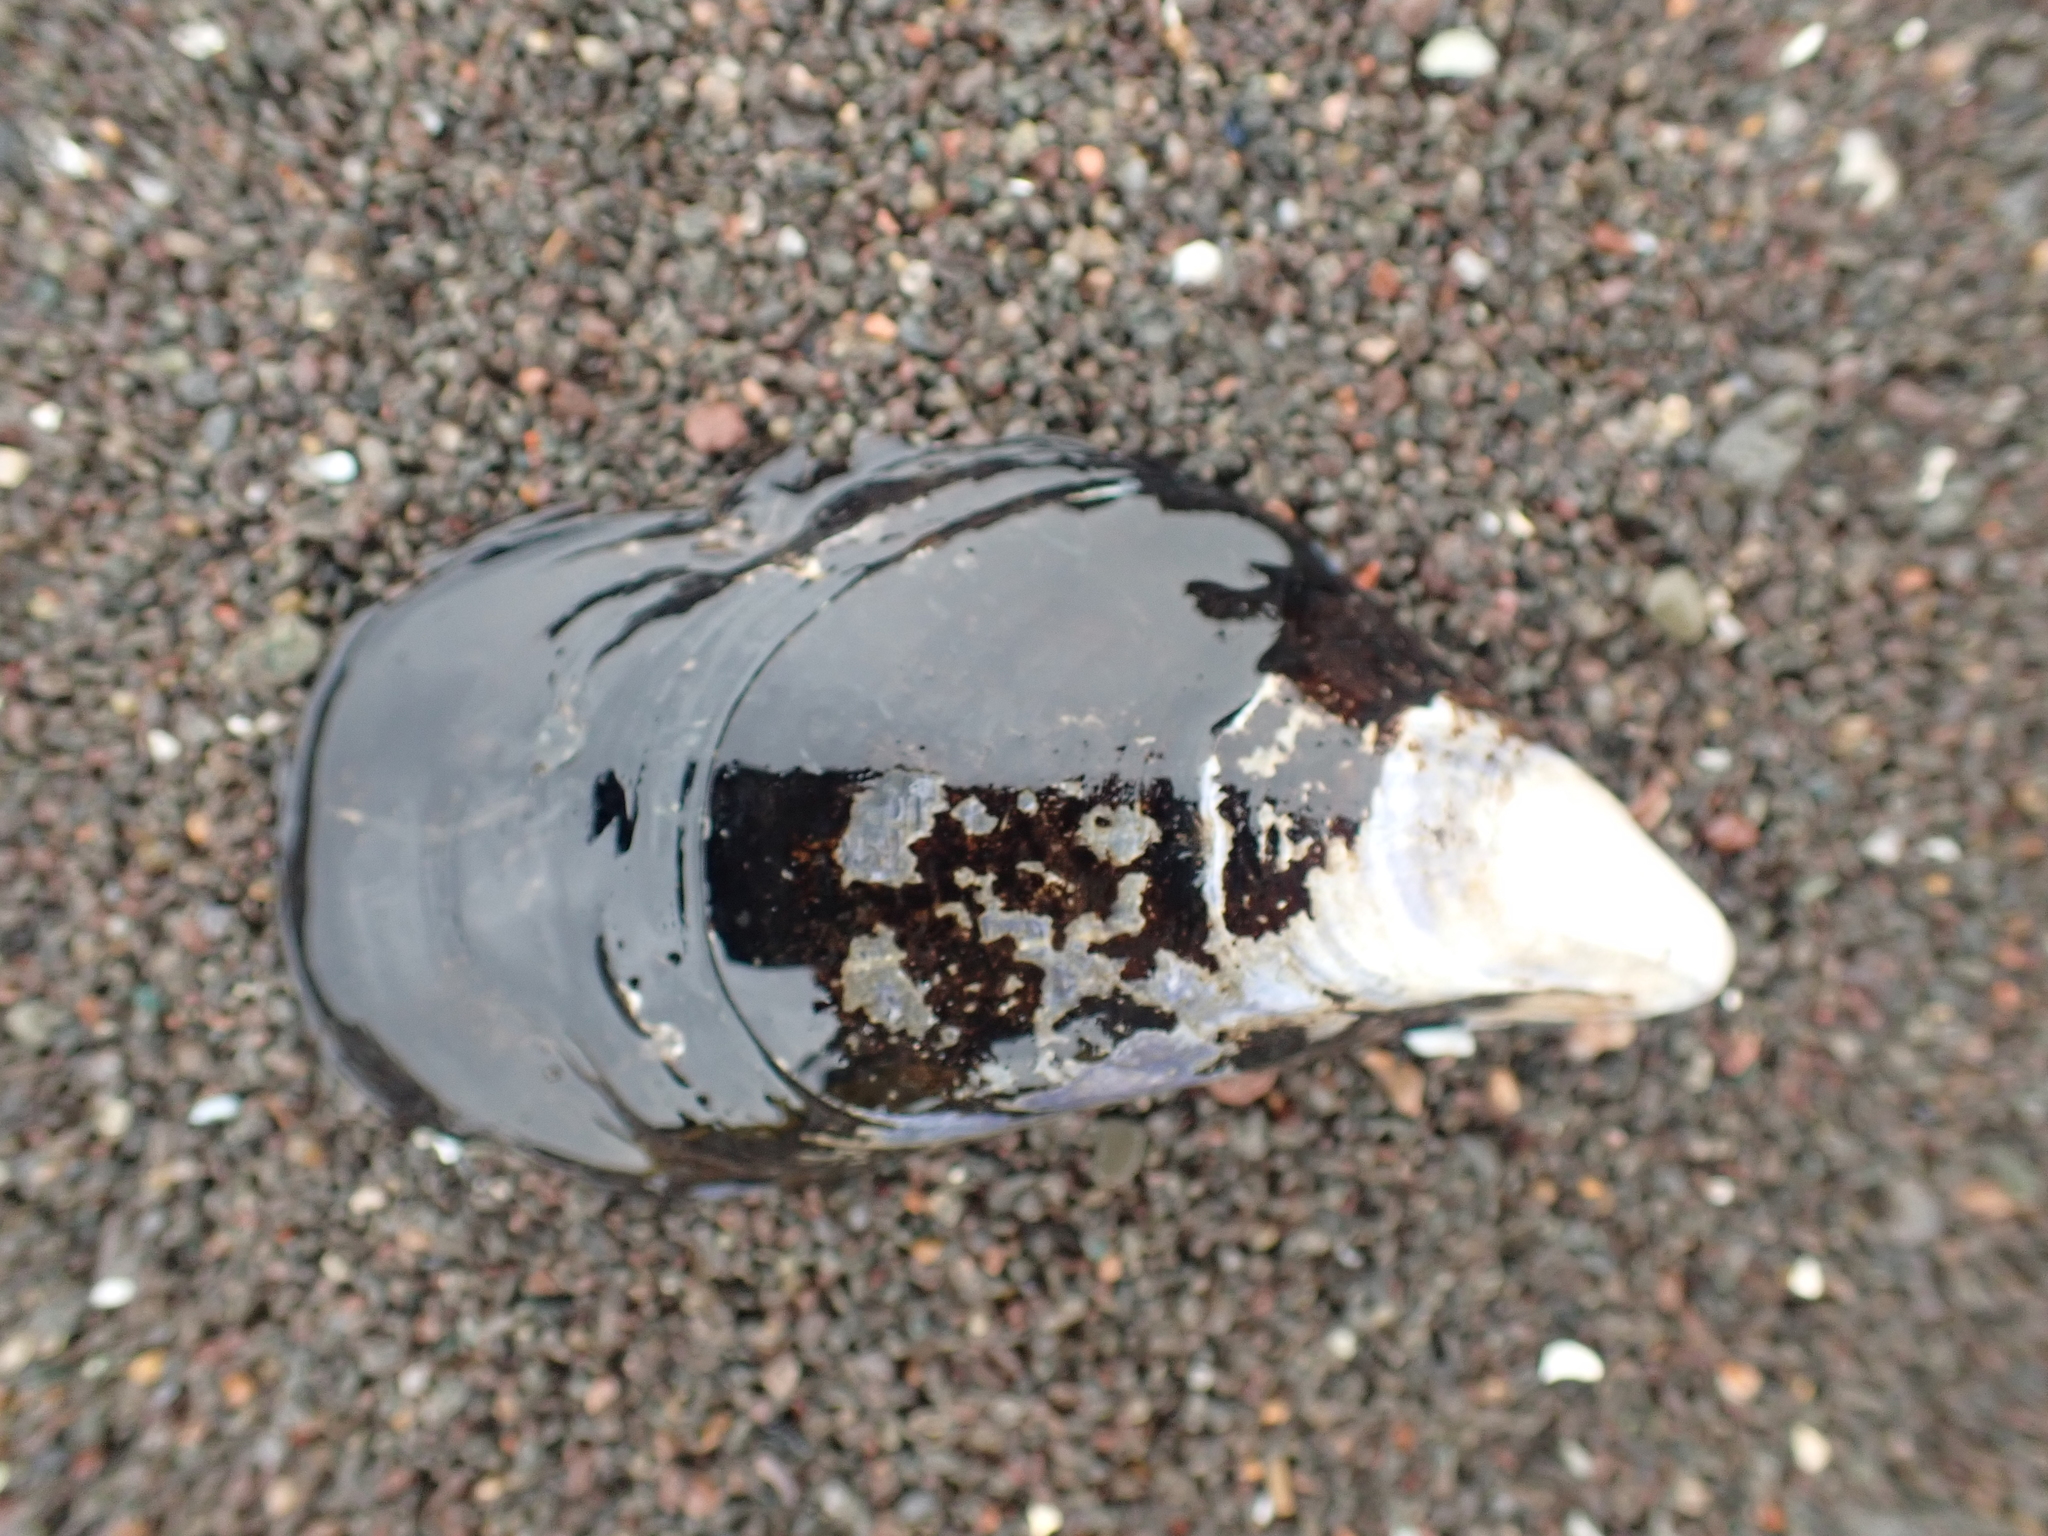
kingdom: Animalia
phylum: Mollusca
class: Bivalvia
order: Mytilida
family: Mytilidae
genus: Mytilus
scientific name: Mytilus edulis
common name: Blue mussel
